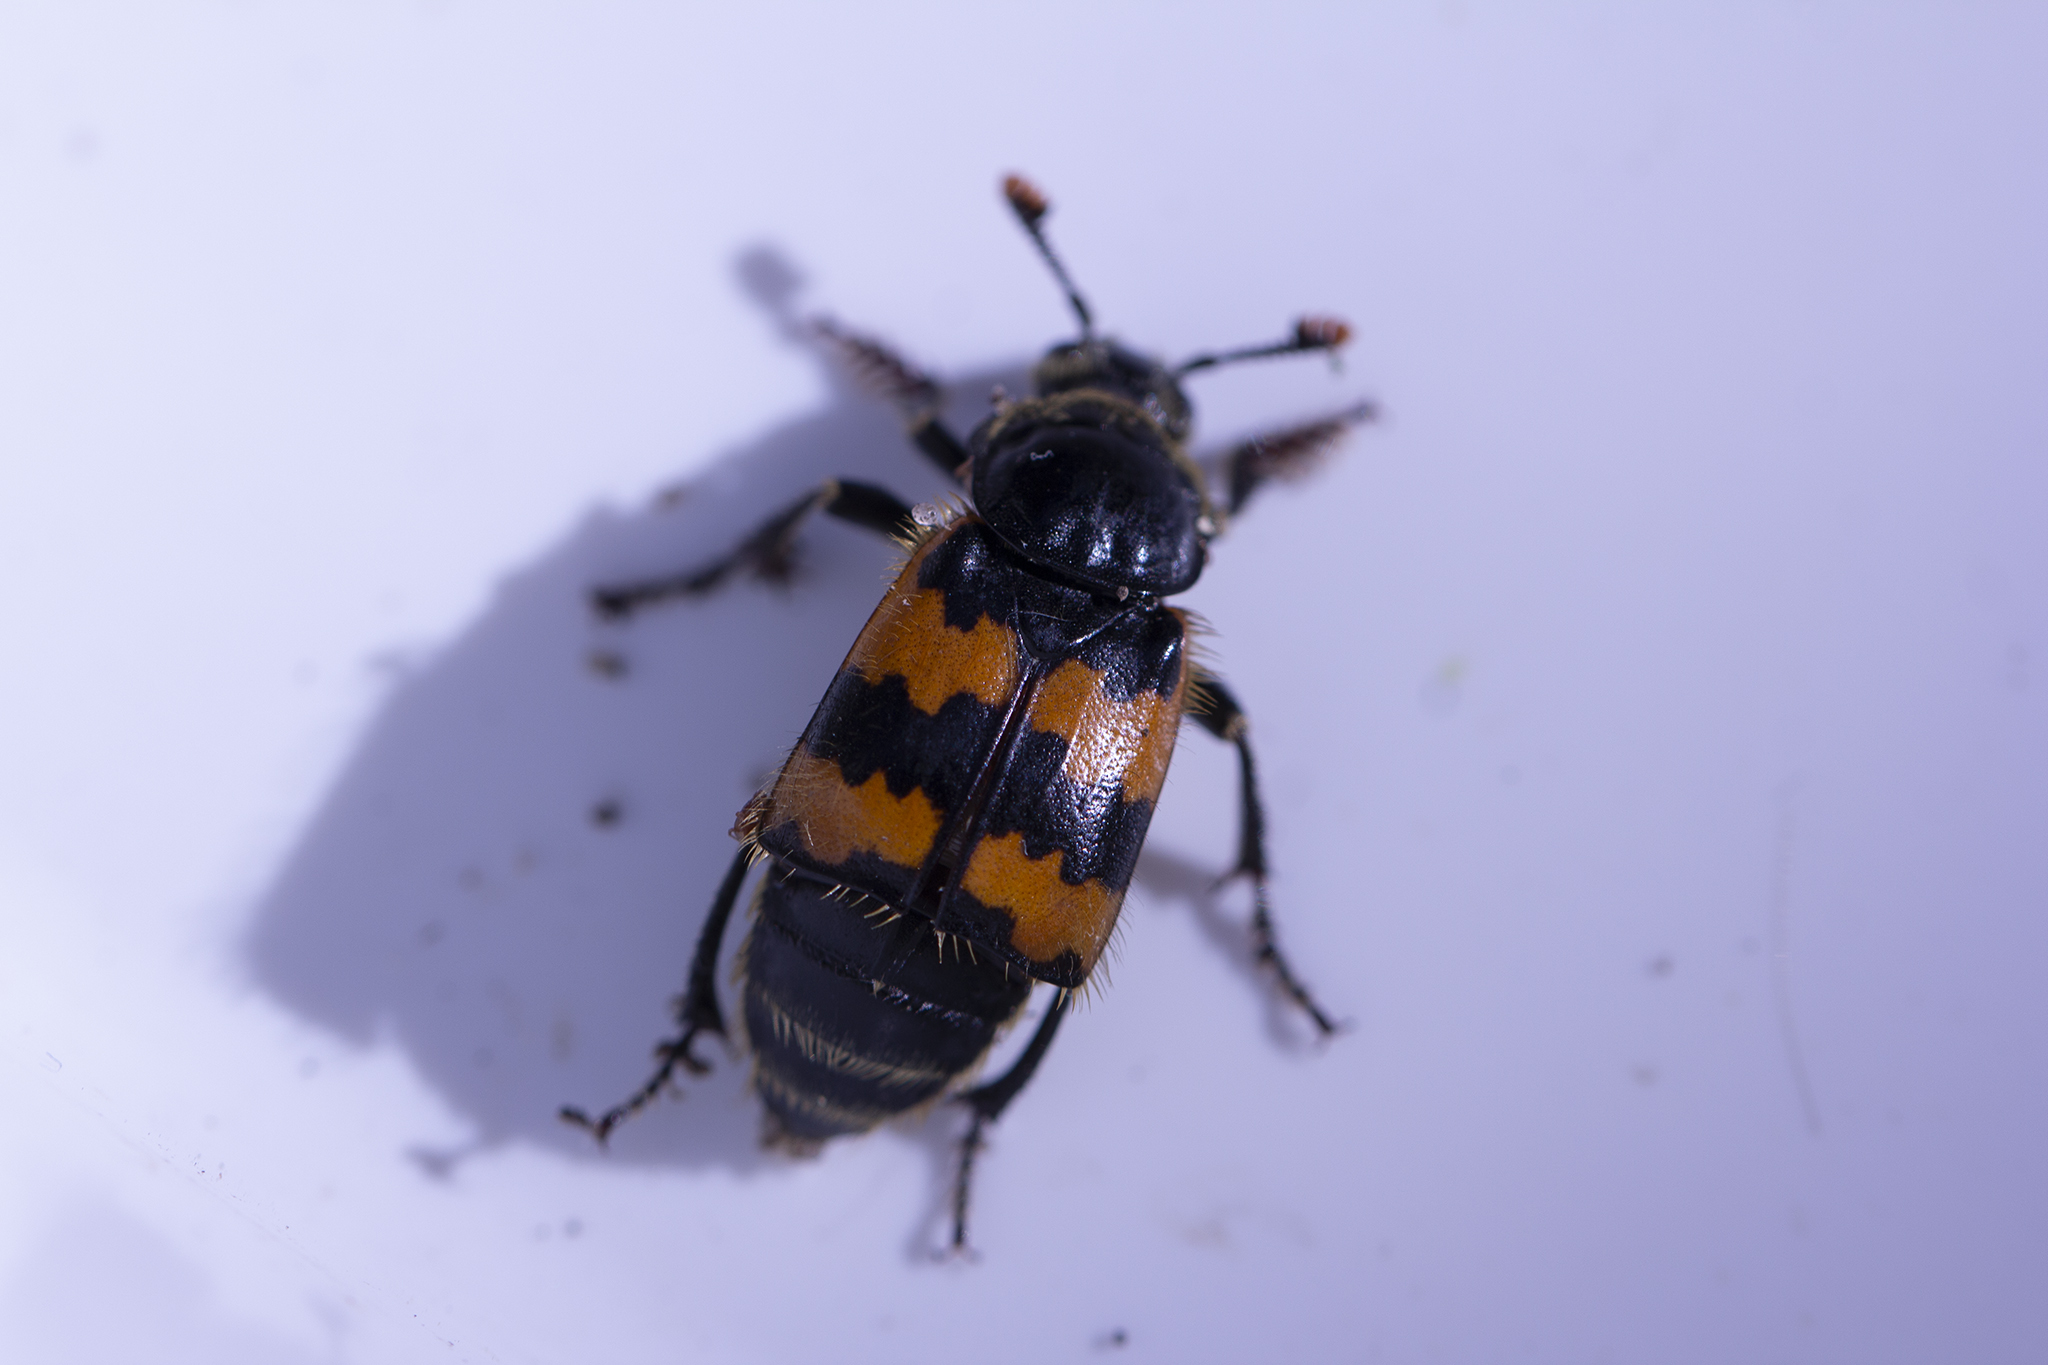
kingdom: Animalia
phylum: Arthropoda
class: Insecta
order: Coleoptera
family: Staphylinidae
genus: Nicrophorus
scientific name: Nicrophorus vespillo
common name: Common burying beetle
